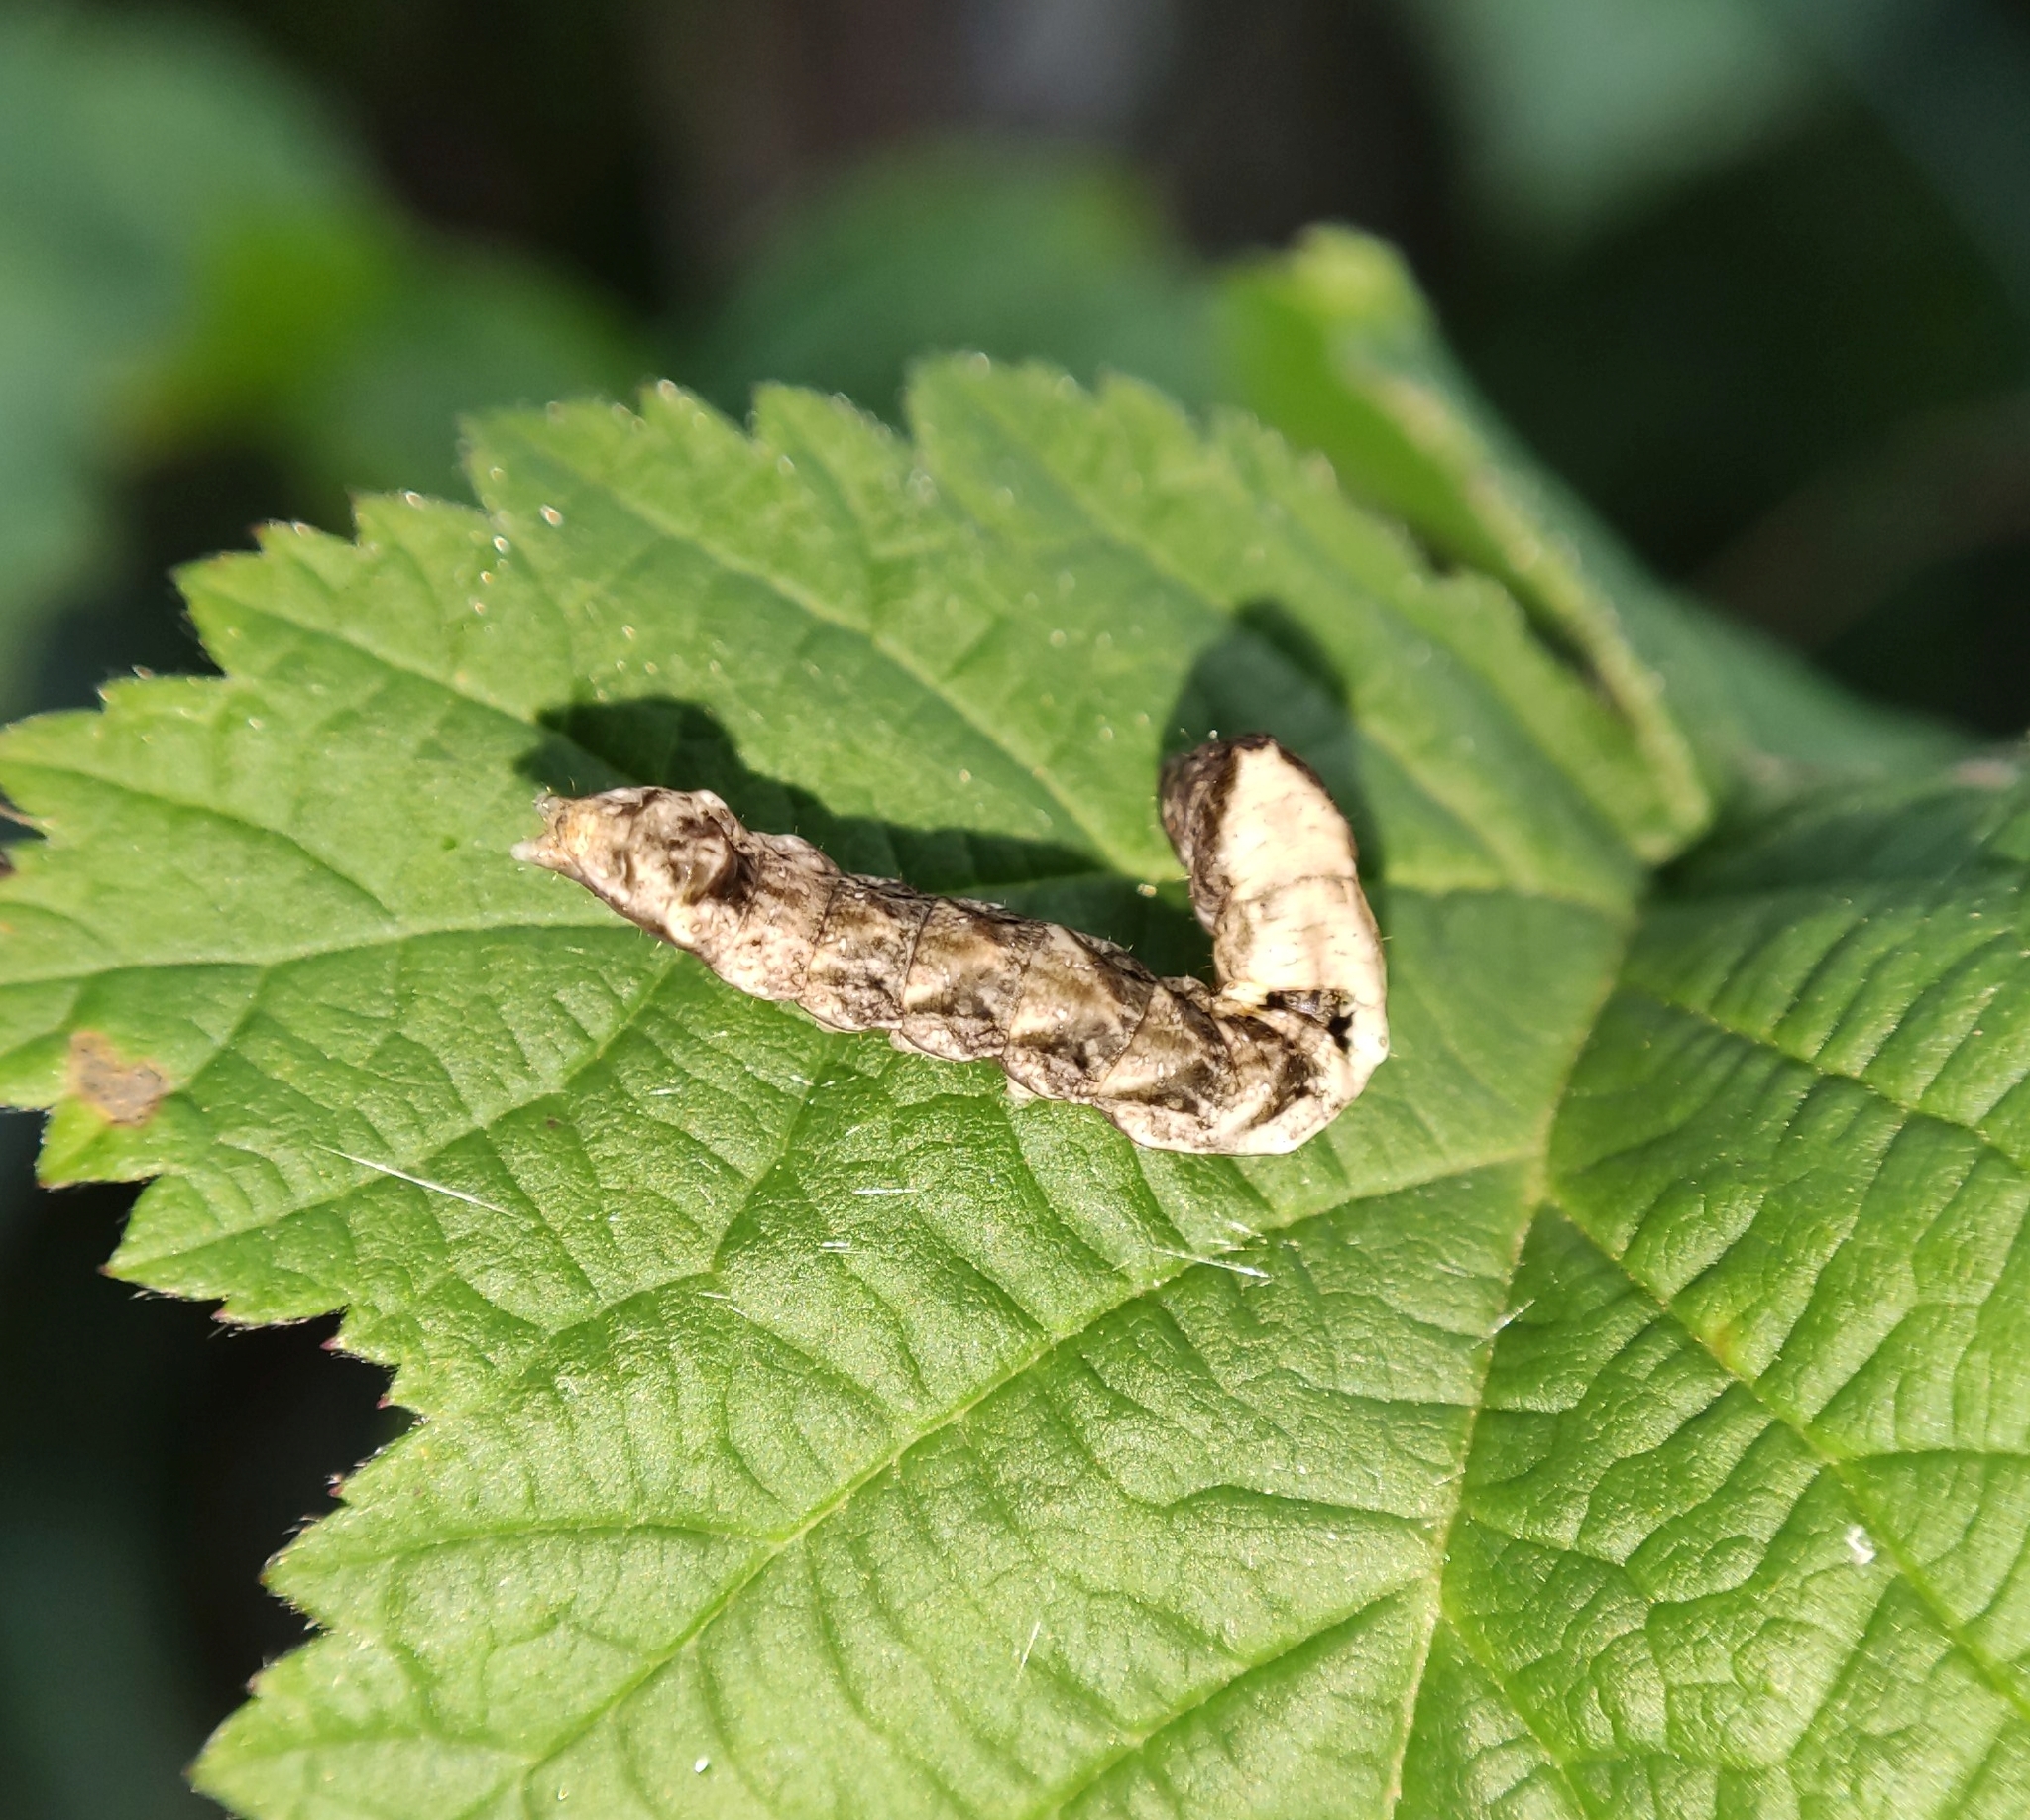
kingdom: Animalia
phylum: Arthropoda
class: Insecta
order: Lepidoptera
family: Drepanidae
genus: Thyatira
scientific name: Thyatira batis
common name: Peach blossom
